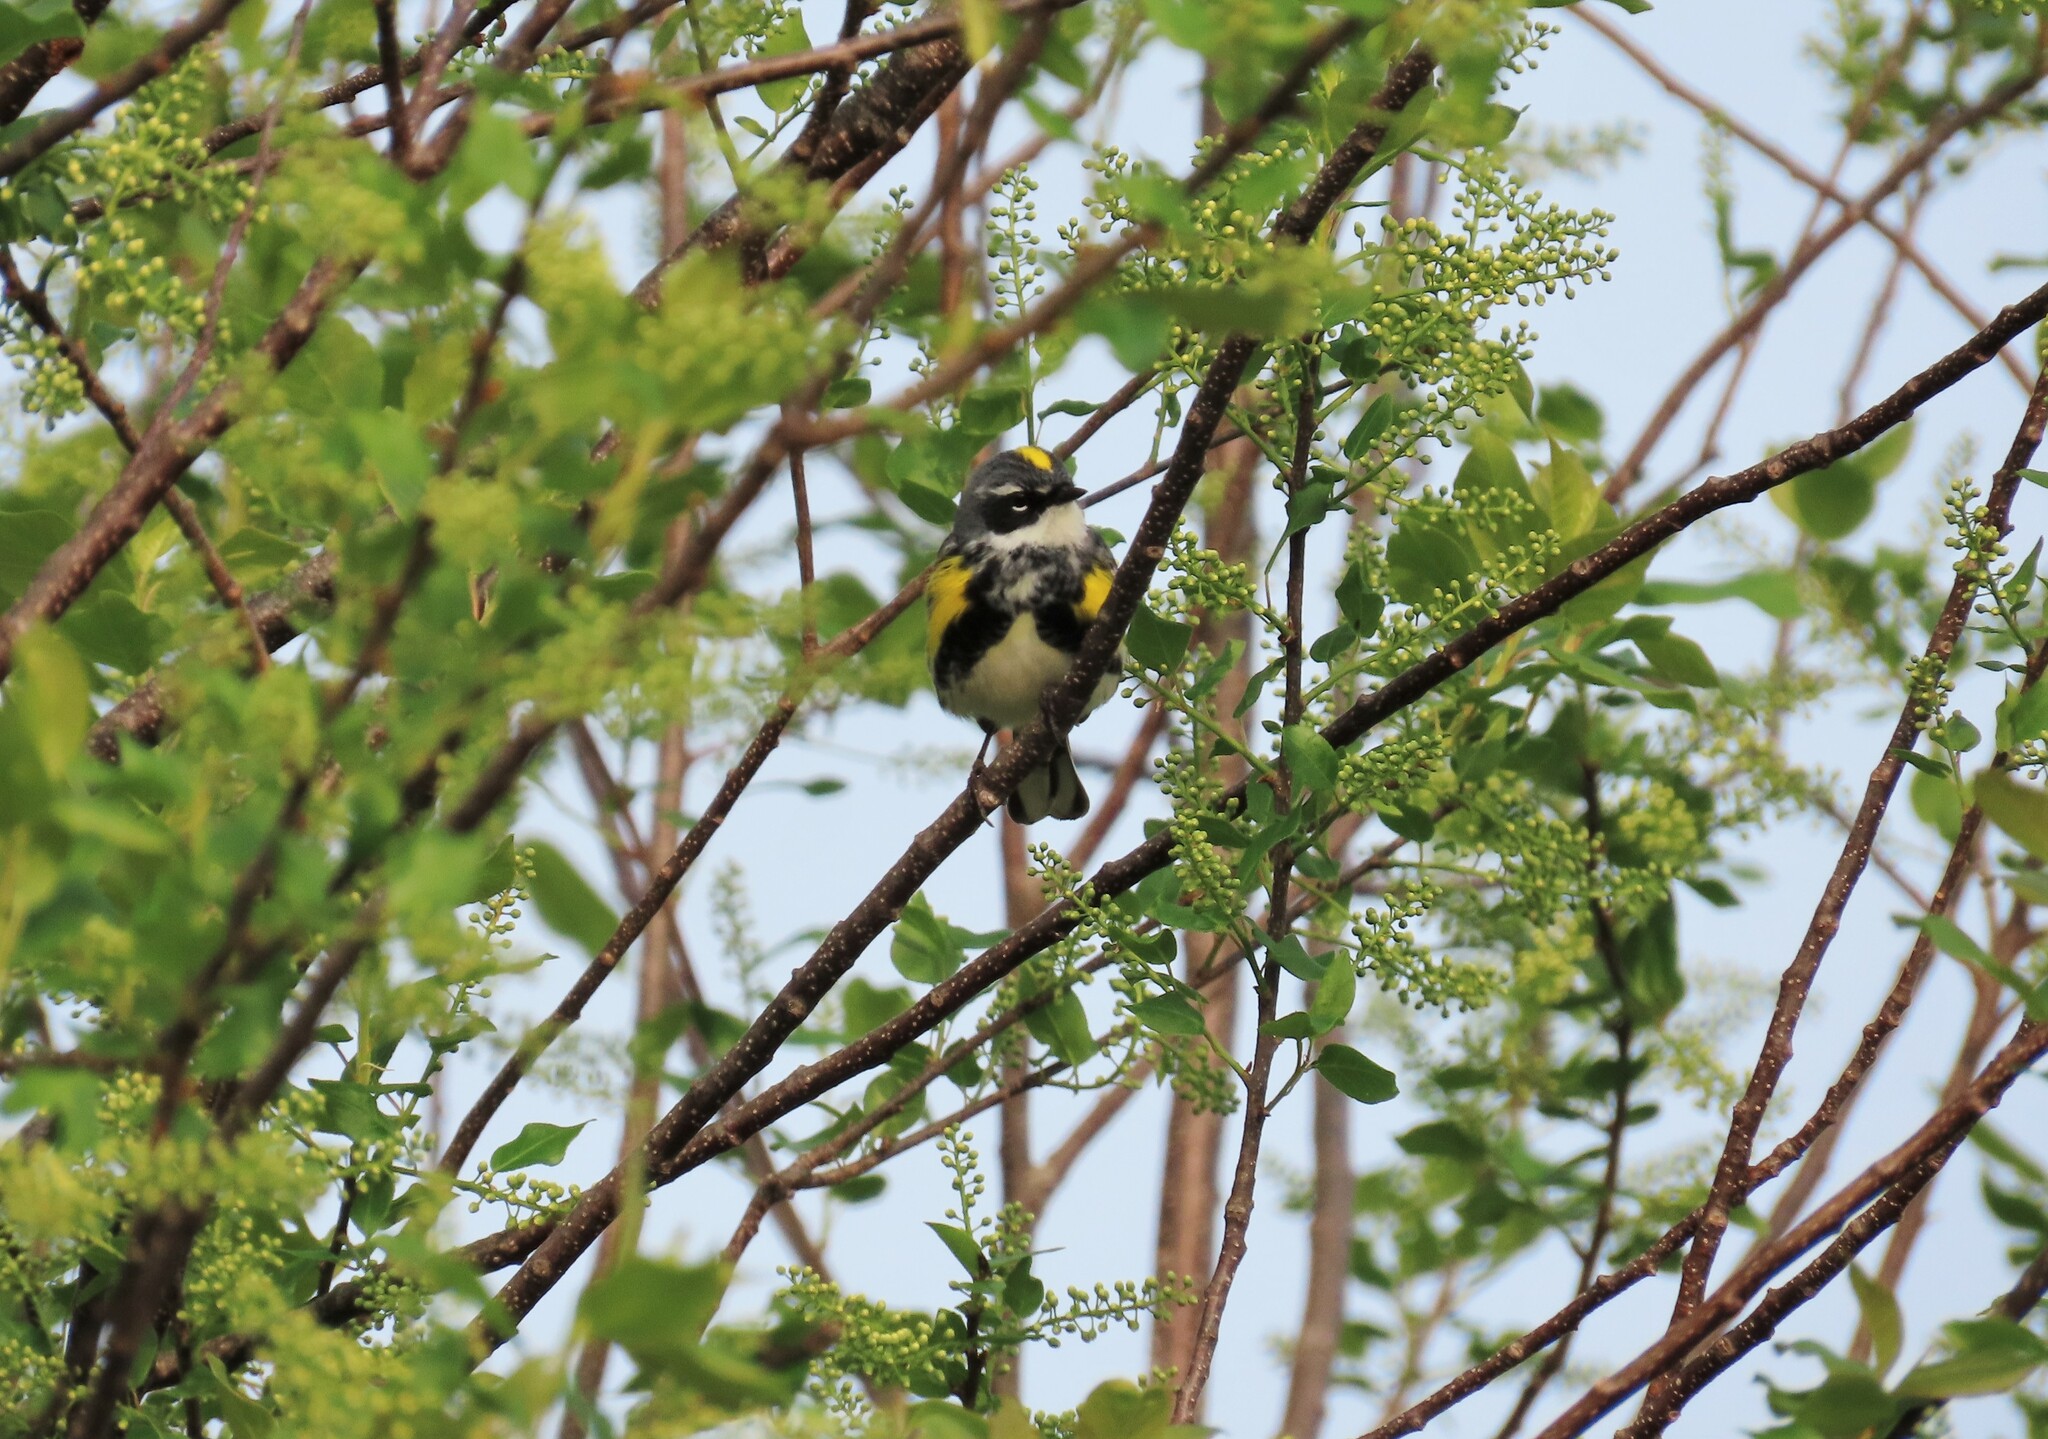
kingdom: Animalia
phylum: Chordata
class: Aves
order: Passeriformes
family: Parulidae
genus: Setophaga
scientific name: Setophaga coronata
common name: Myrtle warbler
